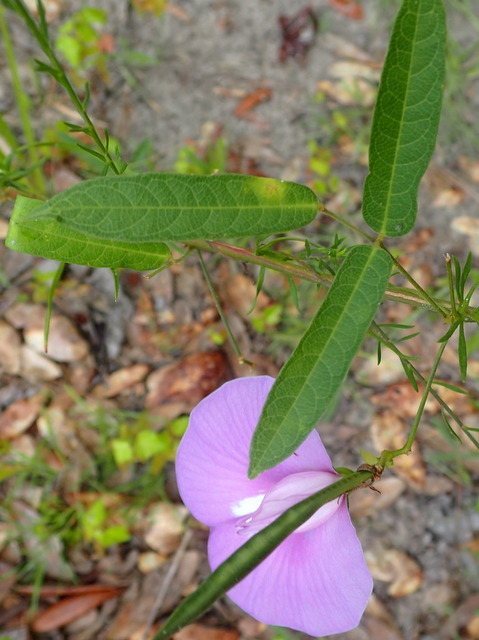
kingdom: Plantae
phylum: Tracheophyta
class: Magnoliopsida
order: Fabales
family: Fabaceae
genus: Centrosema
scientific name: Centrosema virginianum
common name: Butterfly-pea
